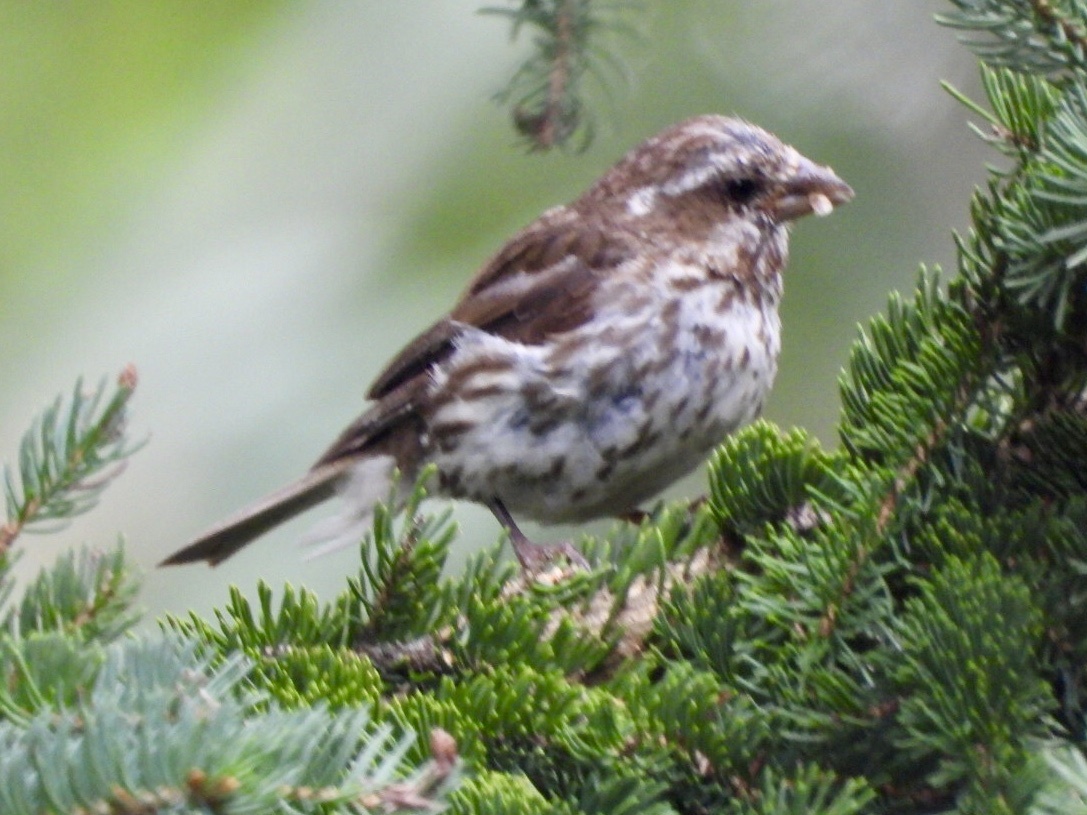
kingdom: Animalia
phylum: Chordata
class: Aves
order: Passeriformes
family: Fringillidae
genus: Haemorhous
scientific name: Haemorhous purpureus
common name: Purple finch
